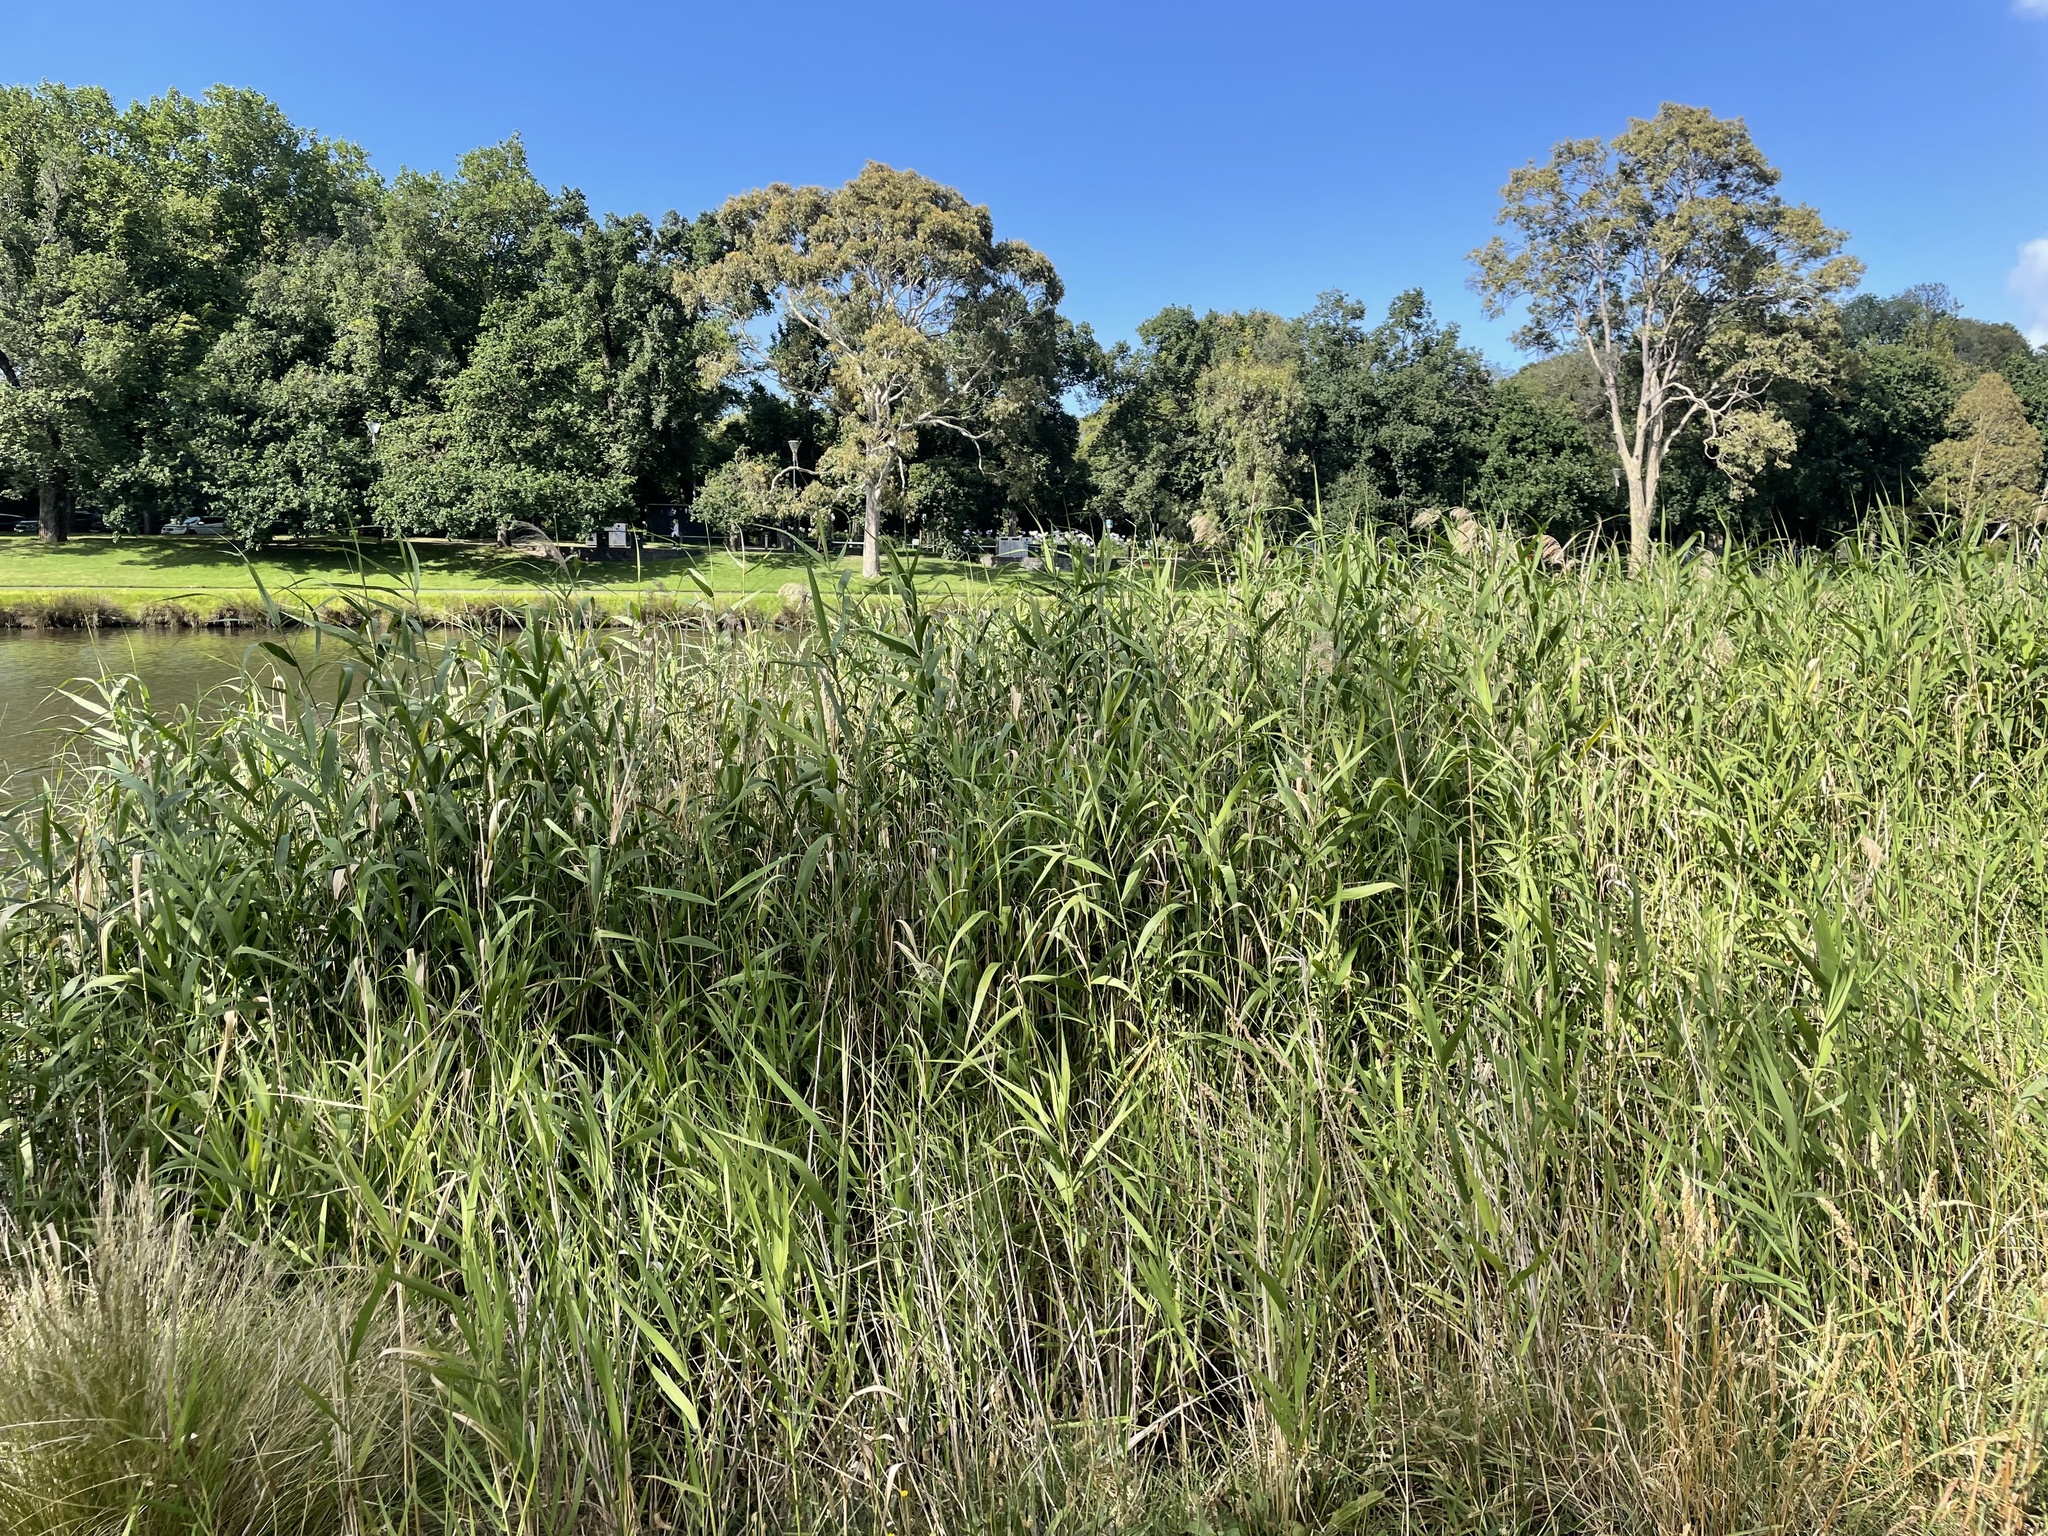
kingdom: Plantae
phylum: Tracheophyta
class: Liliopsida
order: Poales
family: Poaceae
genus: Phragmites
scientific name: Phragmites australis
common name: Common reed
